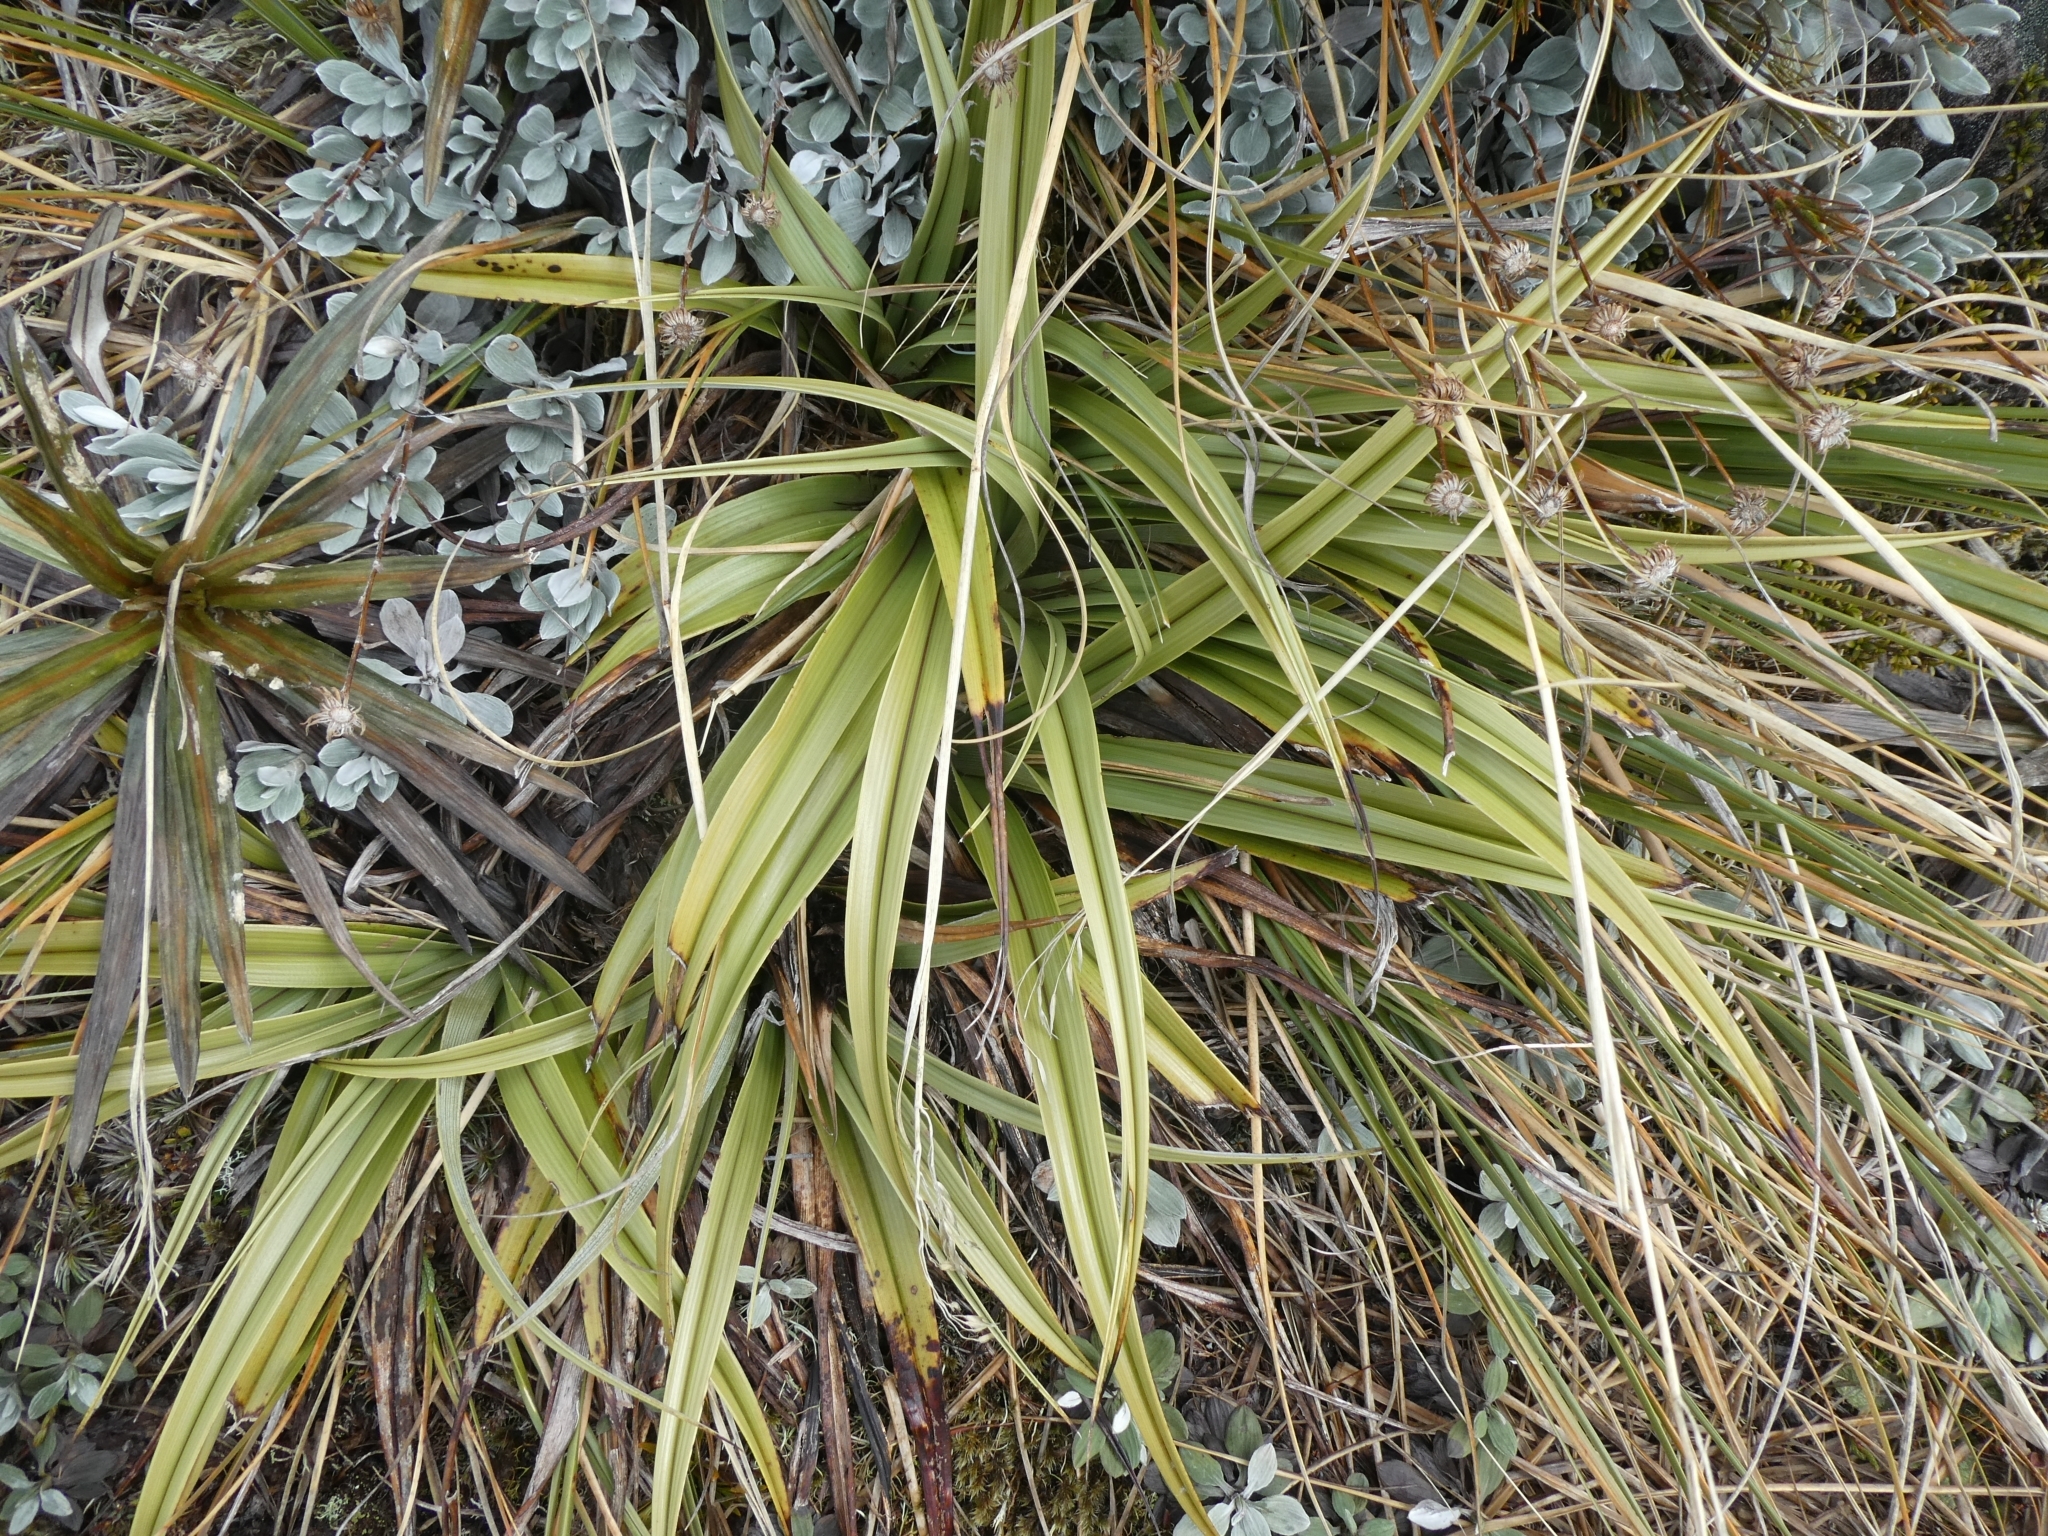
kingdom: Plantae
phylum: Tracheophyta
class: Liliopsida
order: Asparagales
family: Asteliaceae
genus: Astelia
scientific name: Astelia petriei
